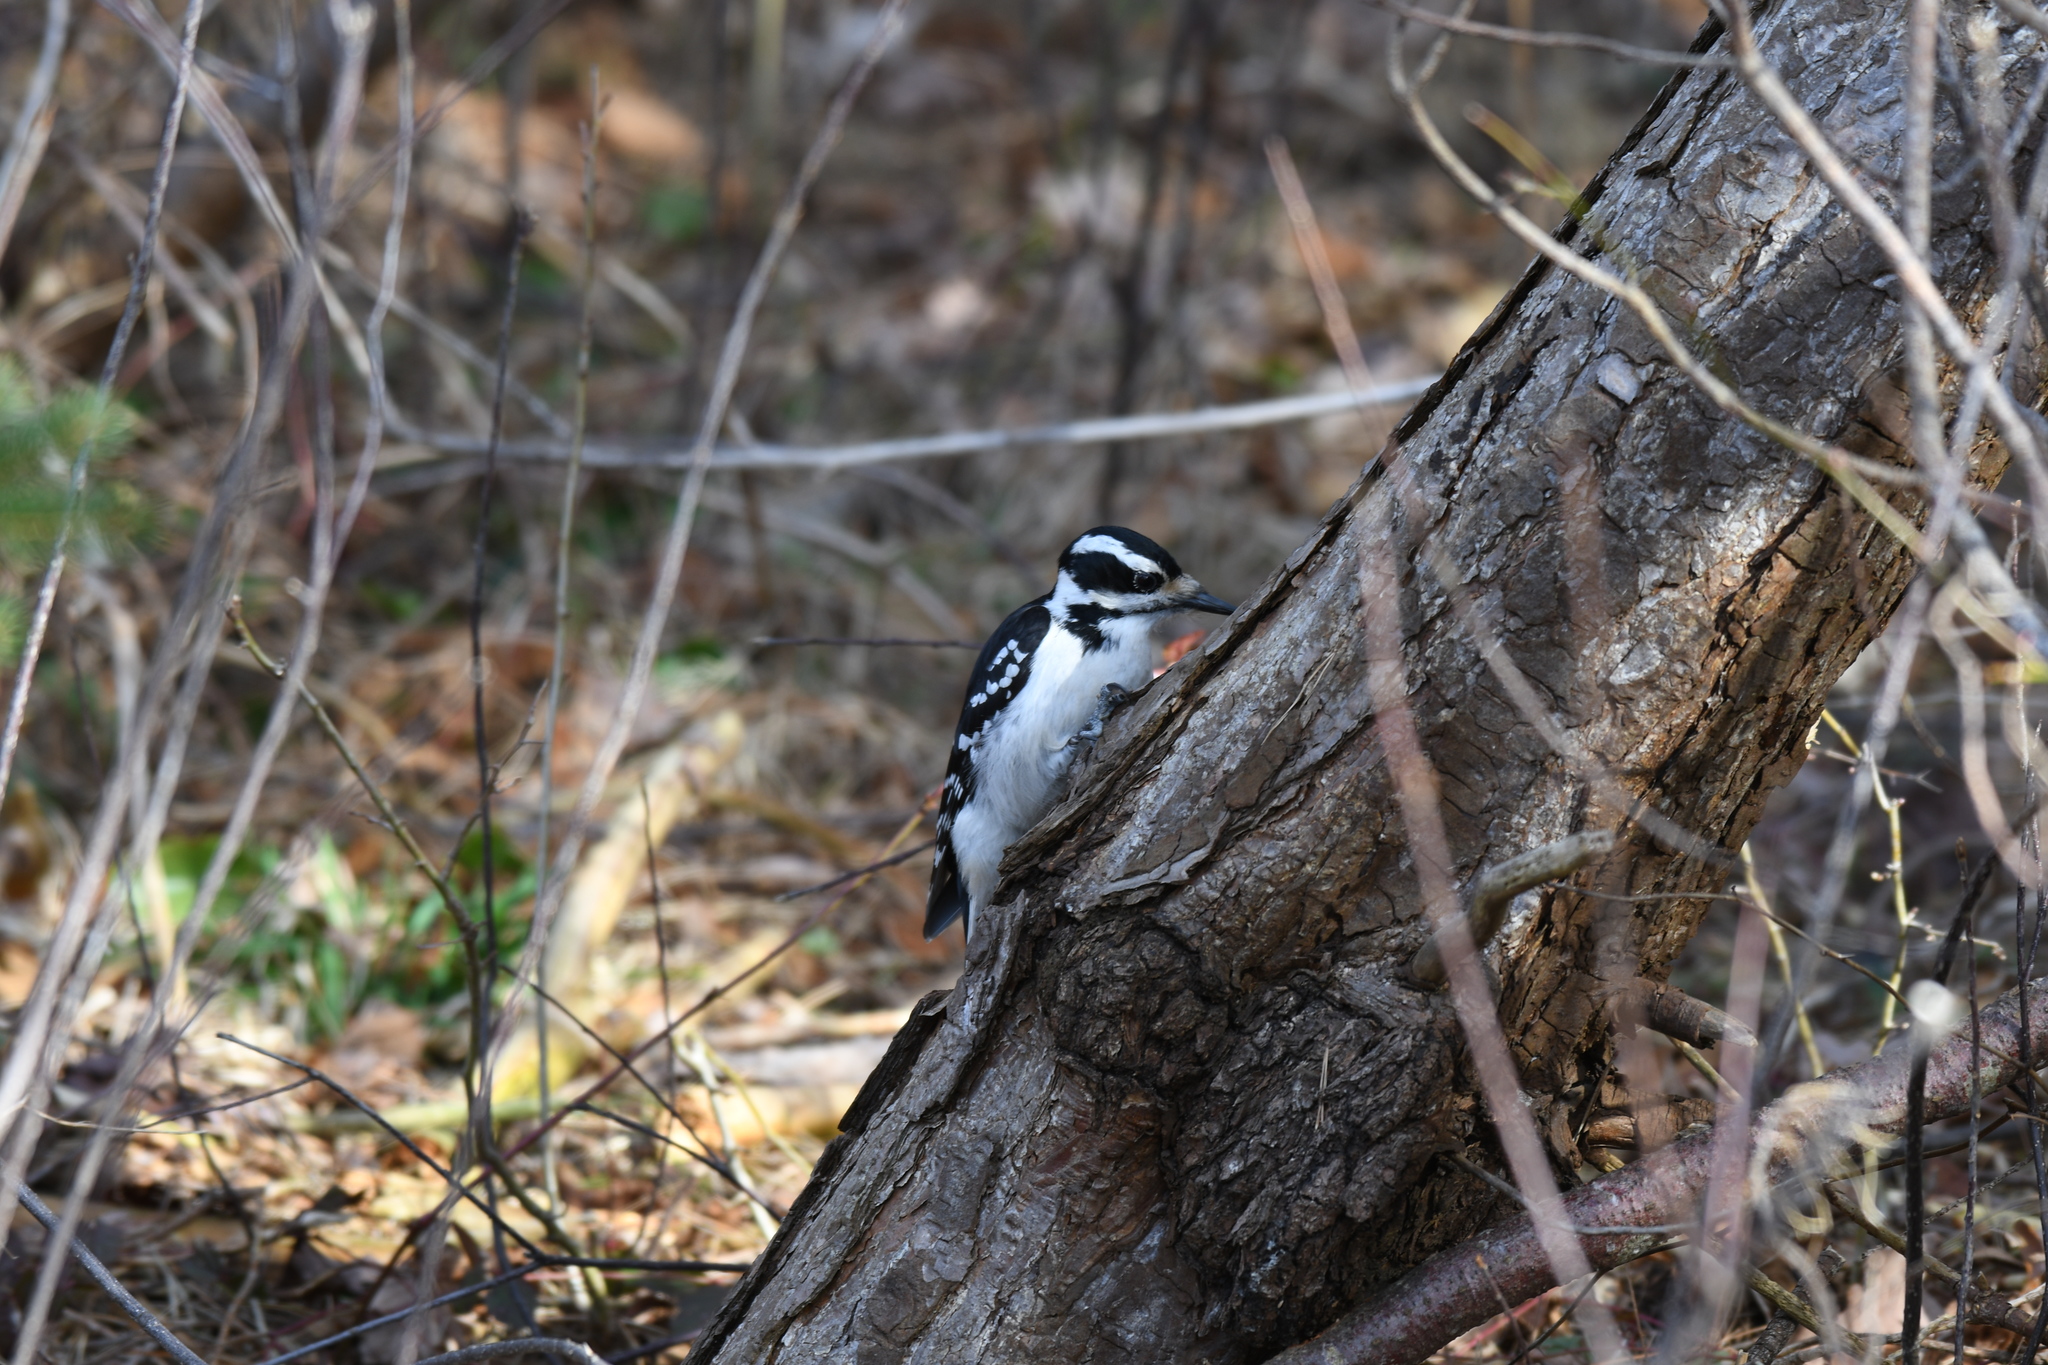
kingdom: Animalia
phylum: Chordata
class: Aves
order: Piciformes
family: Picidae
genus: Leuconotopicus
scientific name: Leuconotopicus villosus
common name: Hairy woodpecker
